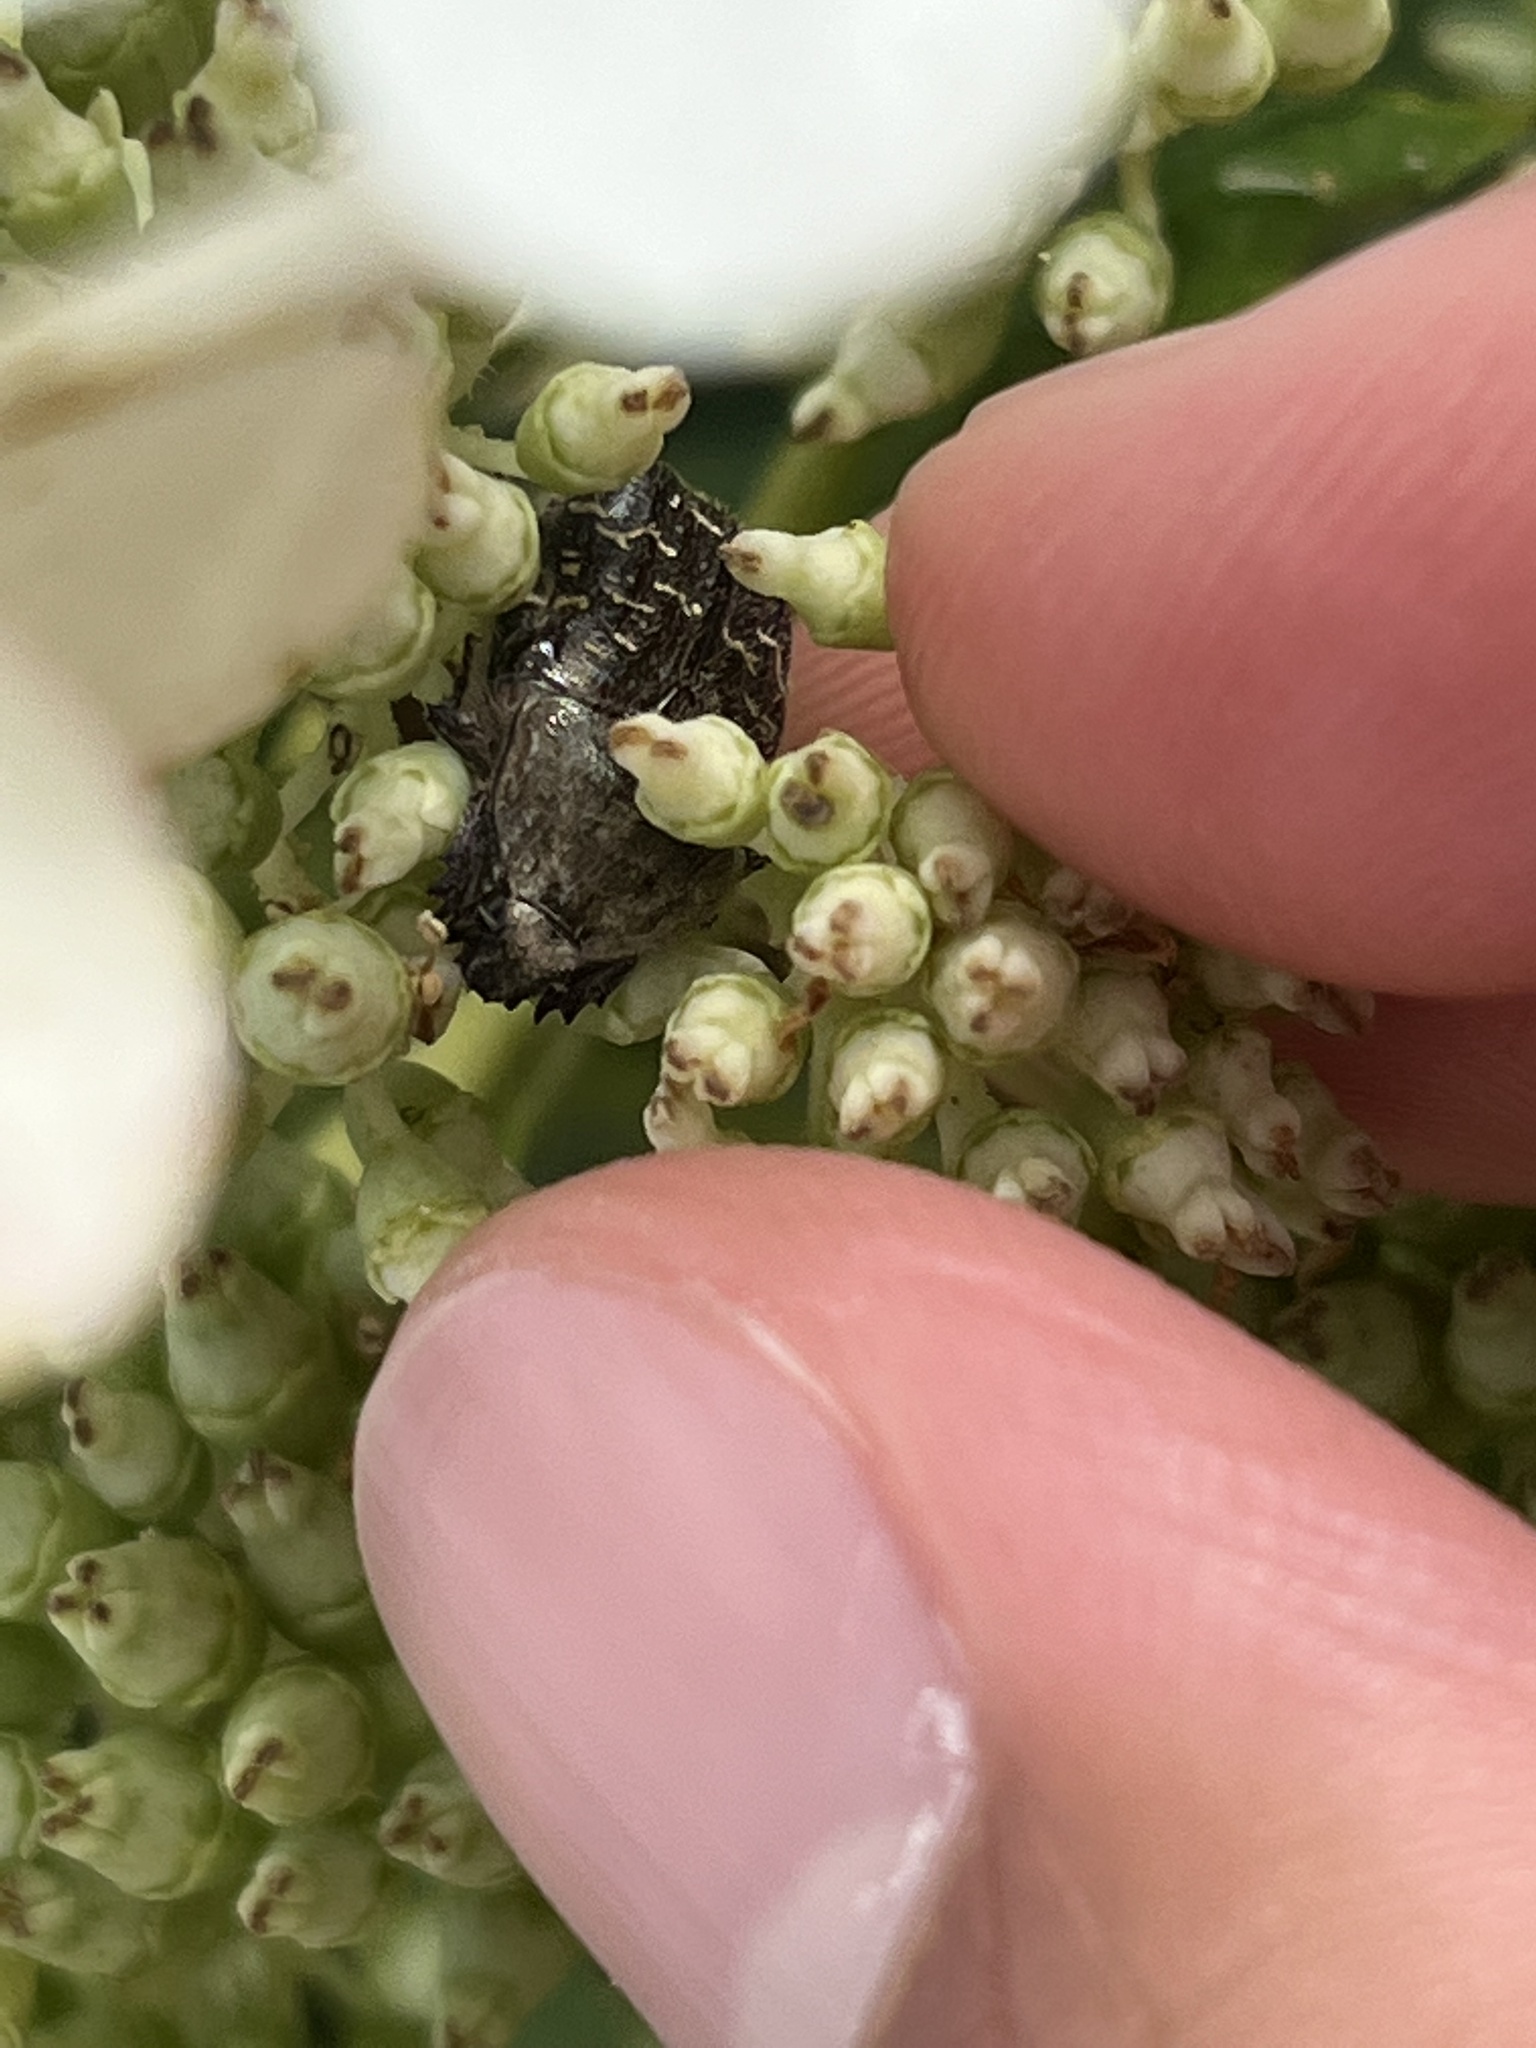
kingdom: Animalia
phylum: Arthropoda
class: Insecta
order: Coleoptera
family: Scarabaeidae
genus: Euphoria
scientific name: Euphoria sepulcralis
